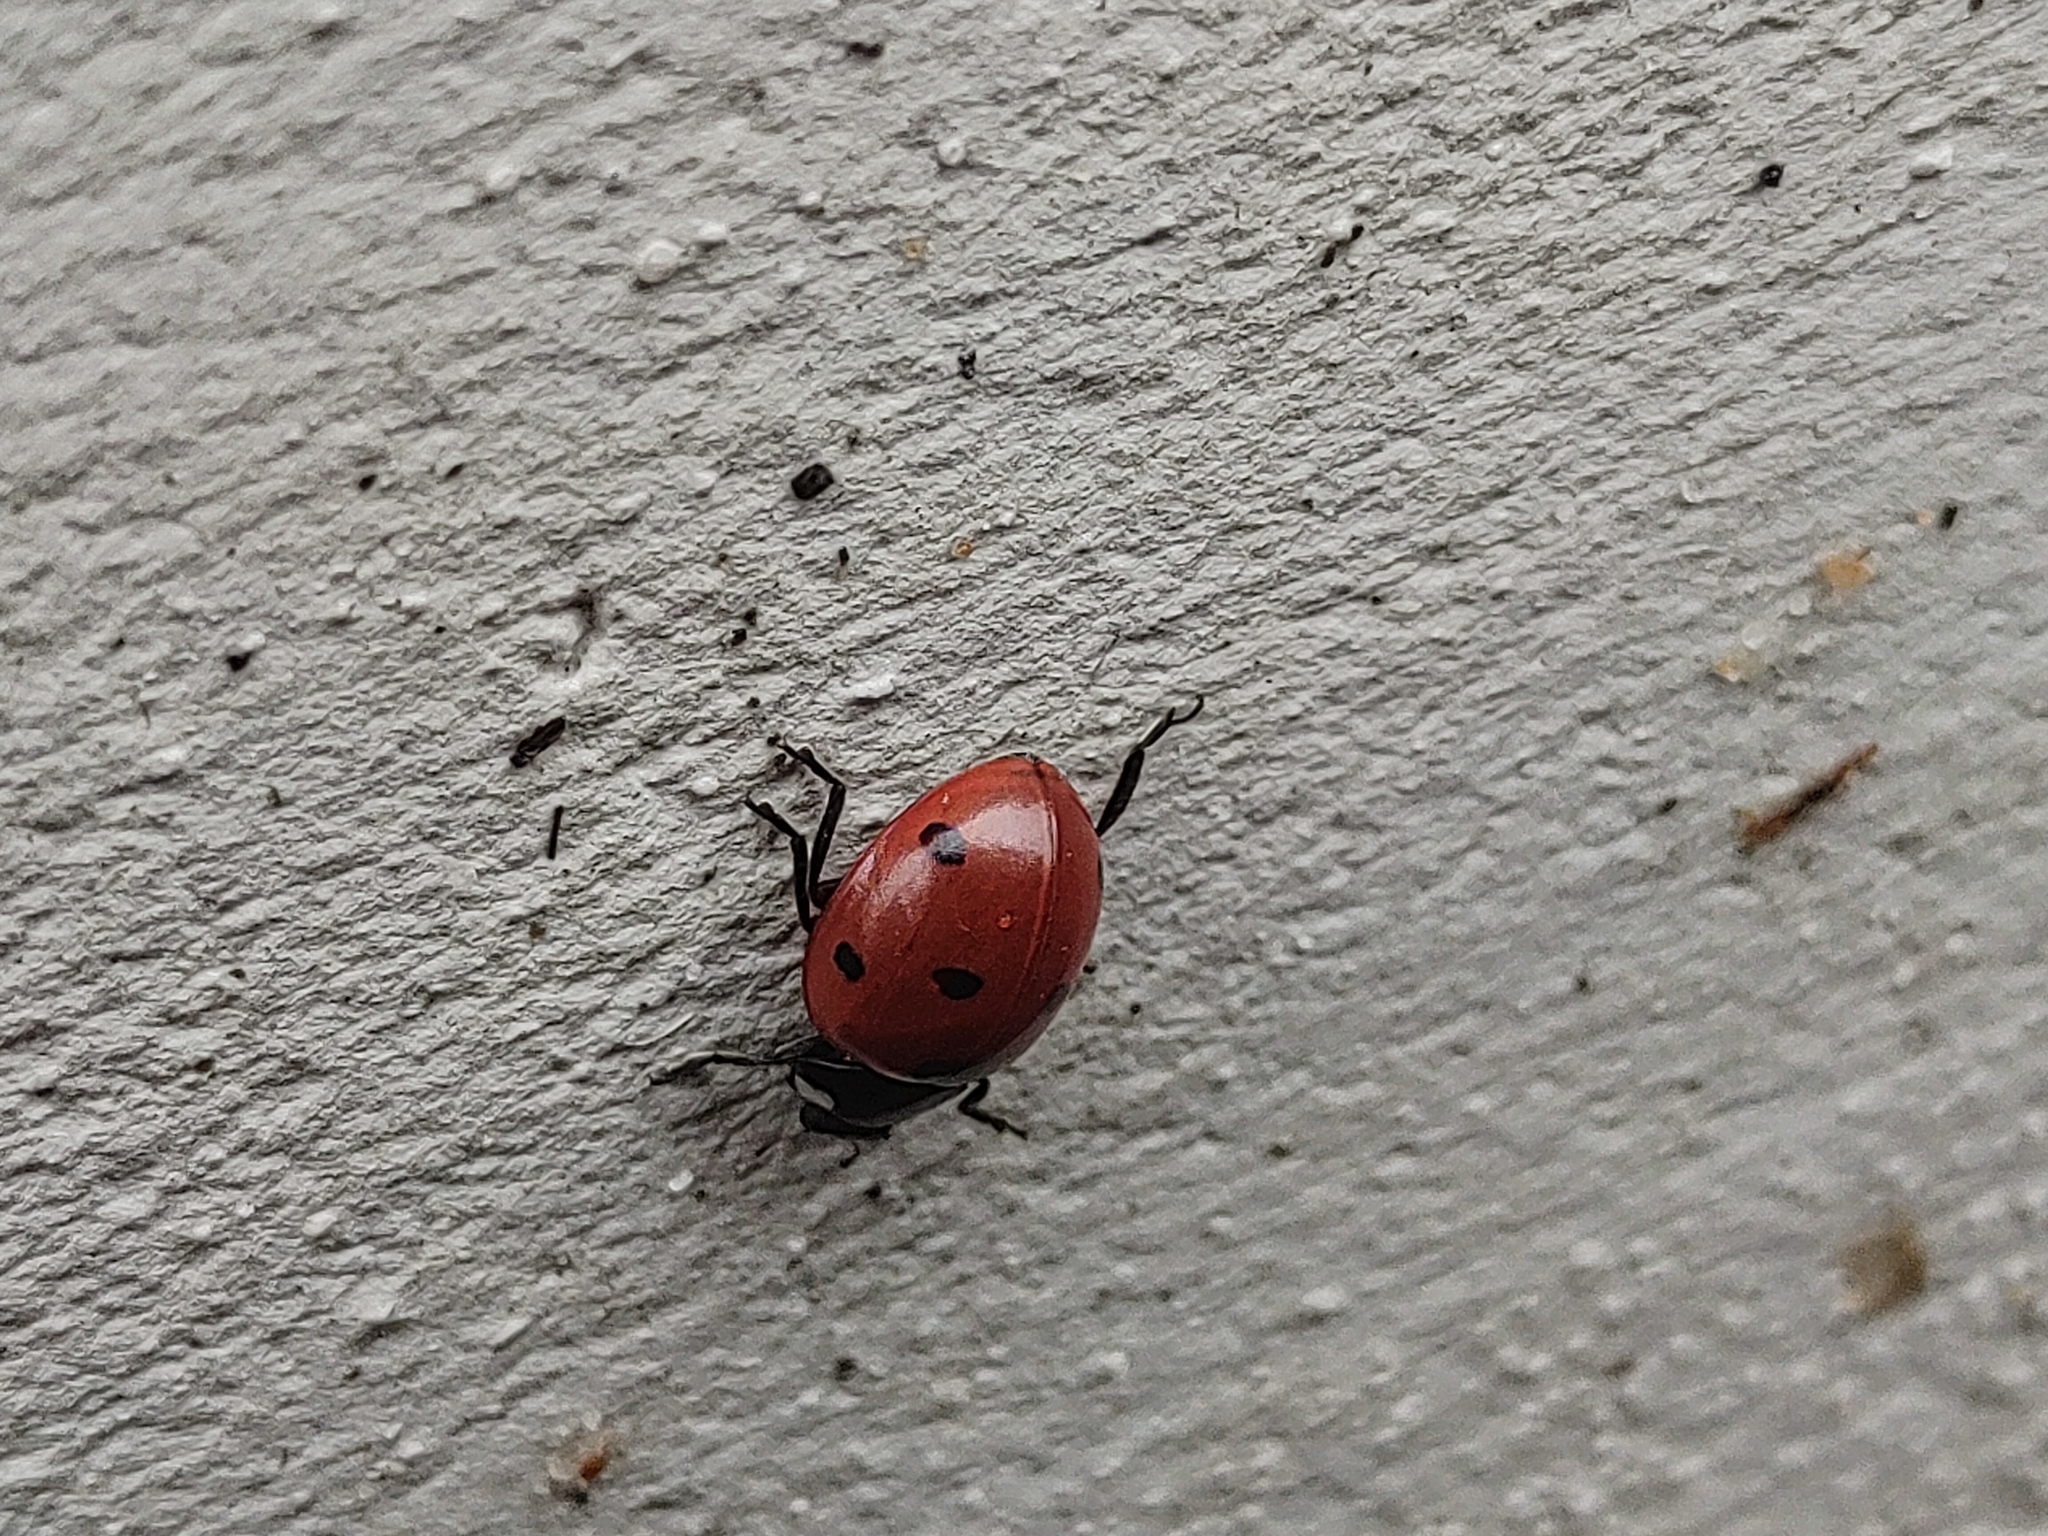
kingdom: Animalia
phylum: Arthropoda
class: Insecta
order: Coleoptera
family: Coccinellidae
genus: Coccinella
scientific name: Coccinella septempunctata
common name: Sevenspotted lady beetle
